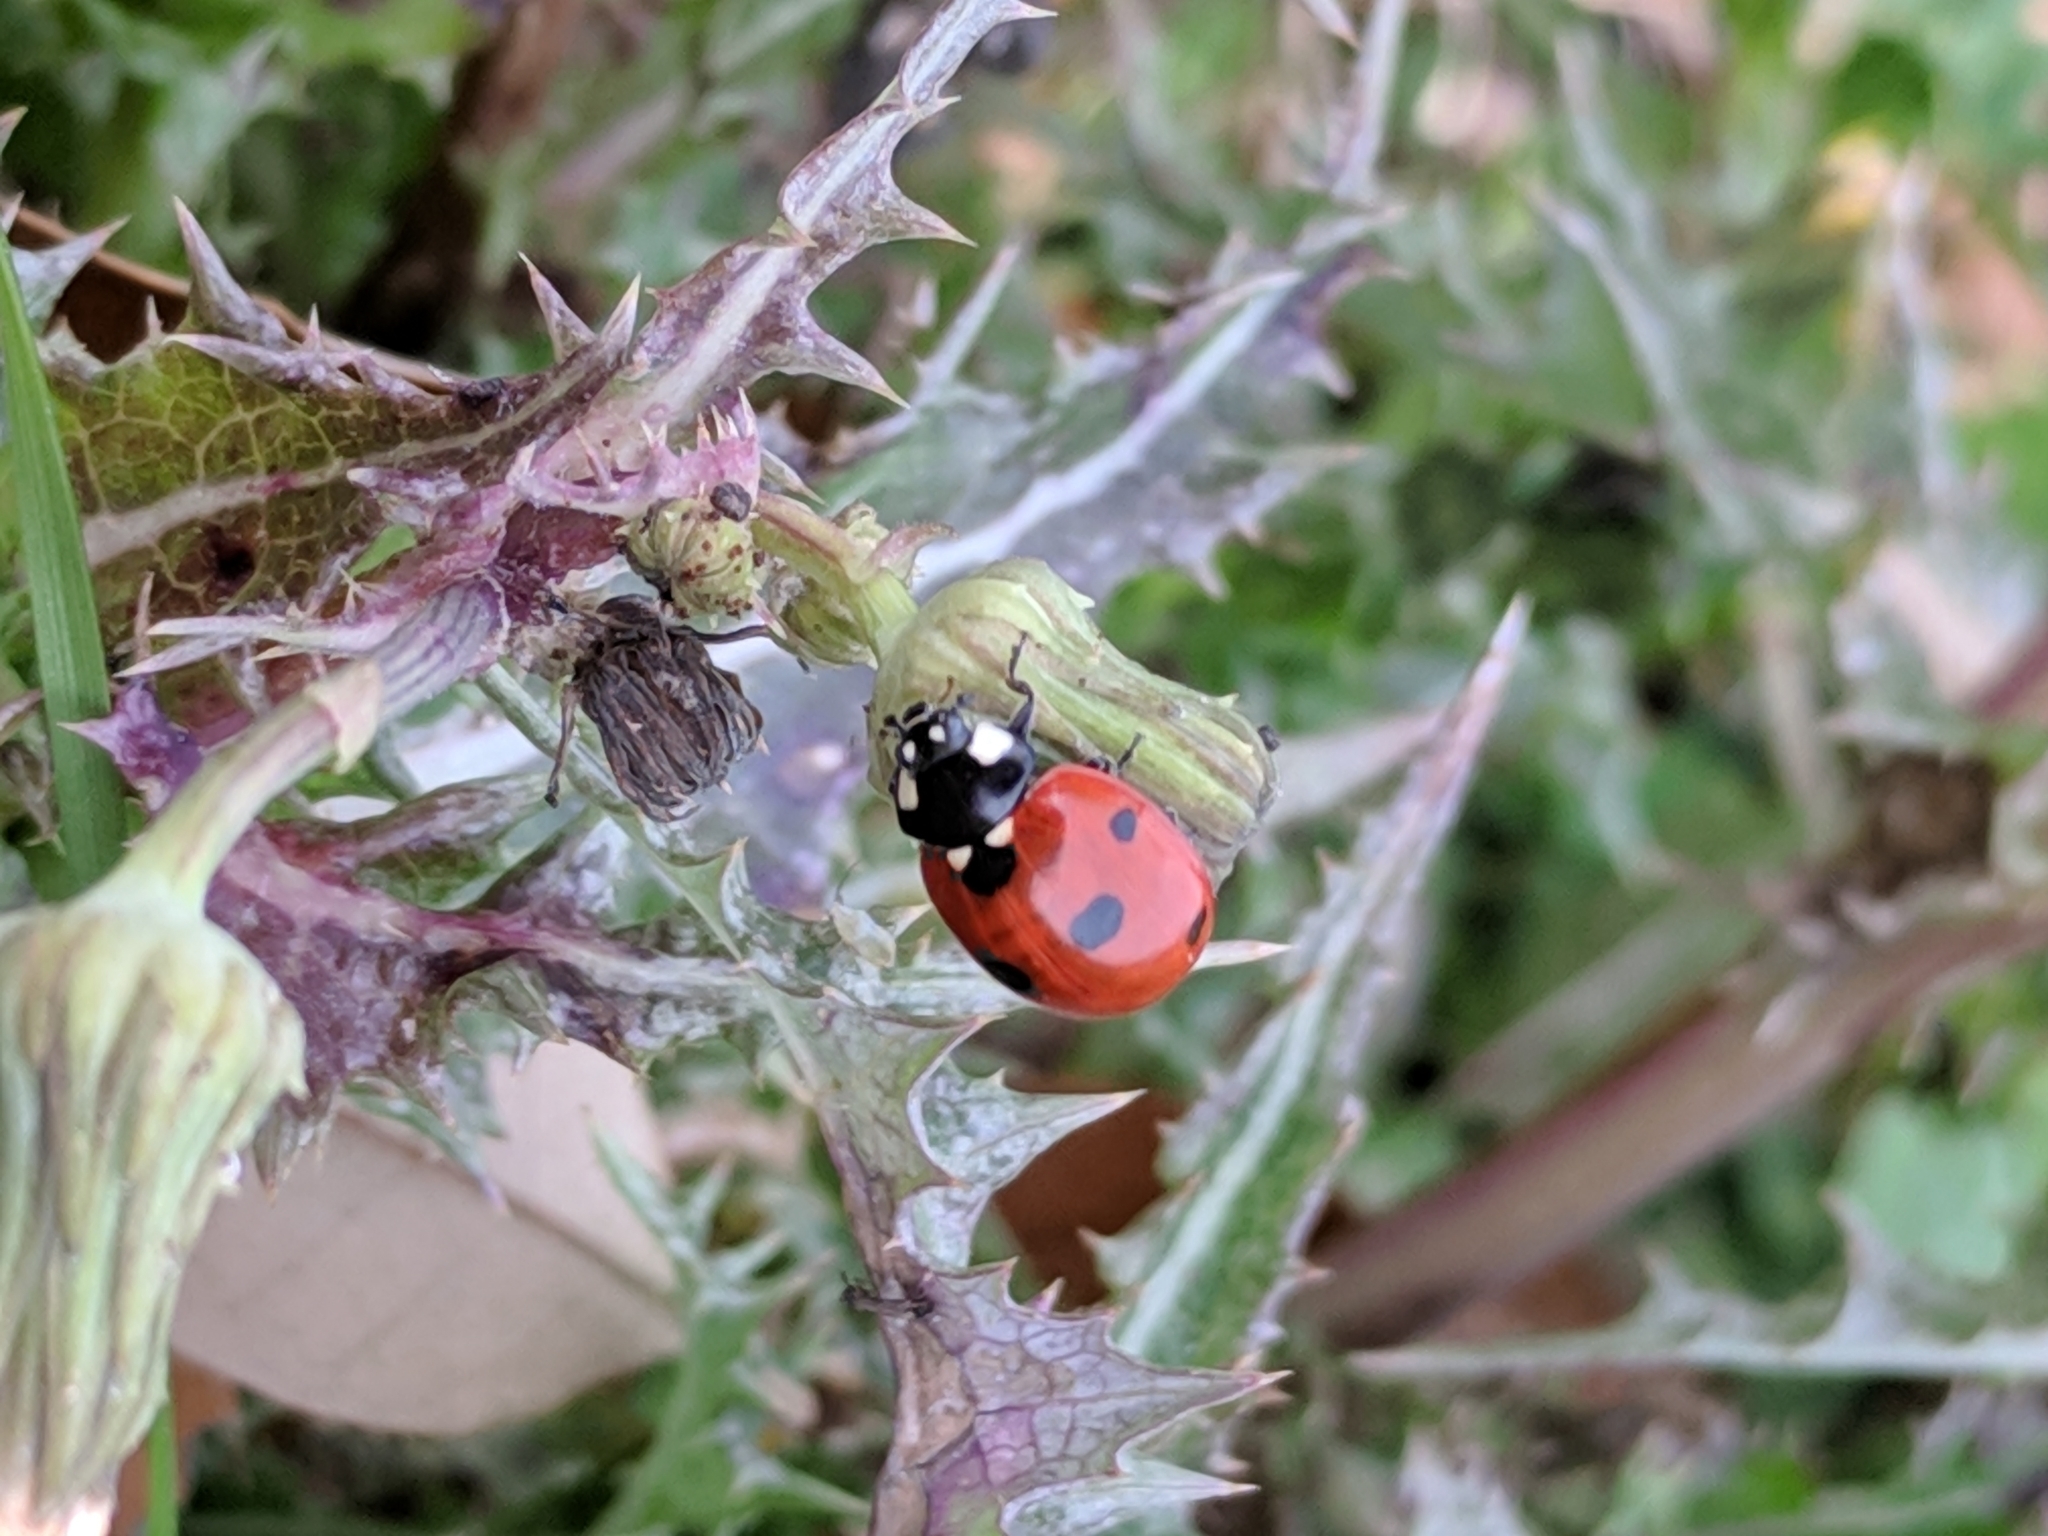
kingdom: Animalia
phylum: Arthropoda
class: Insecta
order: Coleoptera
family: Coccinellidae
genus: Coccinella
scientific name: Coccinella septempunctata
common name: Sevenspotted lady beetle
